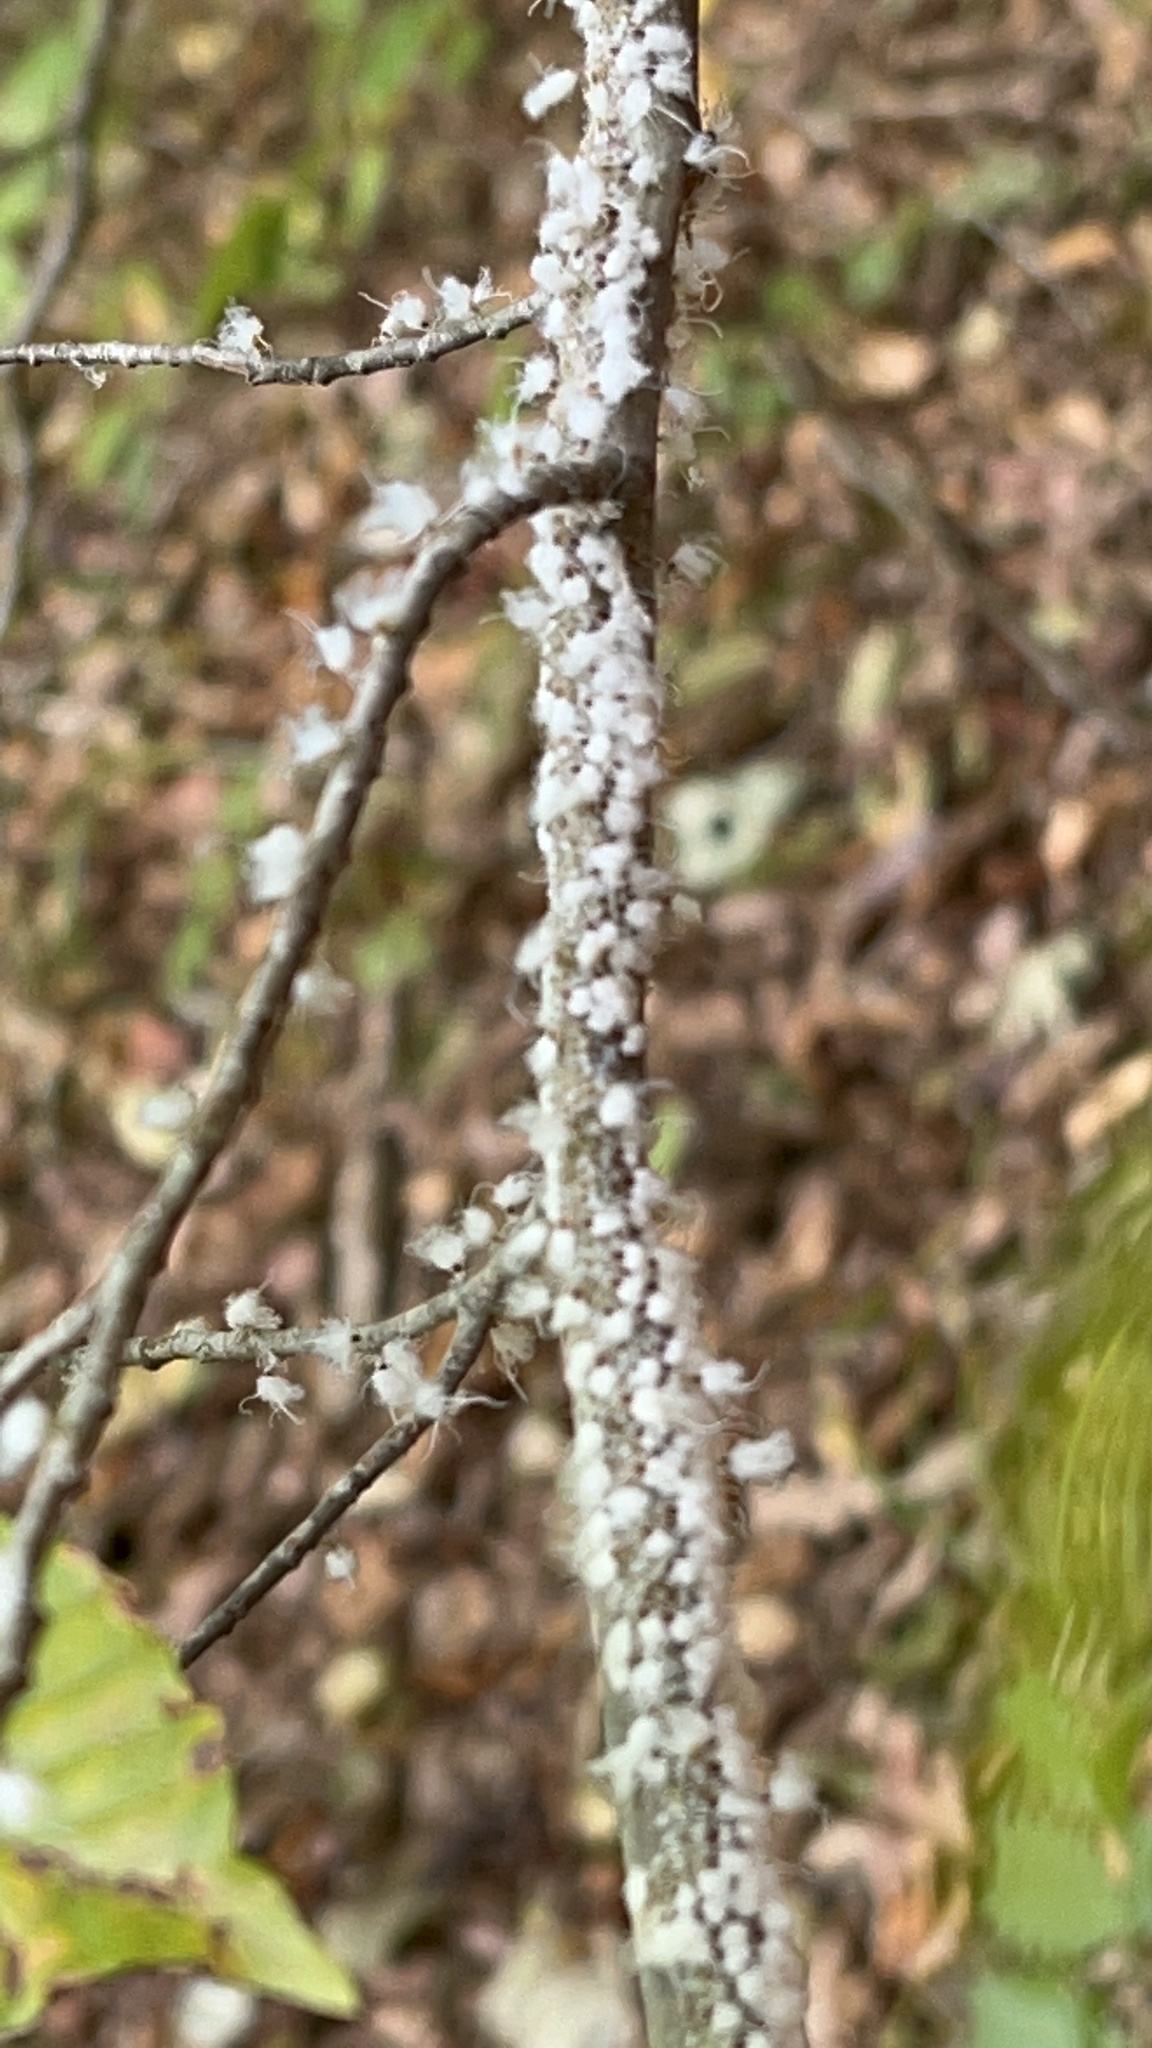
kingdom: Animalia
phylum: Arthropoda
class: Insecta
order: Hemiptera
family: Aphididae
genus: Grylloprociphilus
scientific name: Grylloprociphilus imbricator
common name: Beech blight aphid
